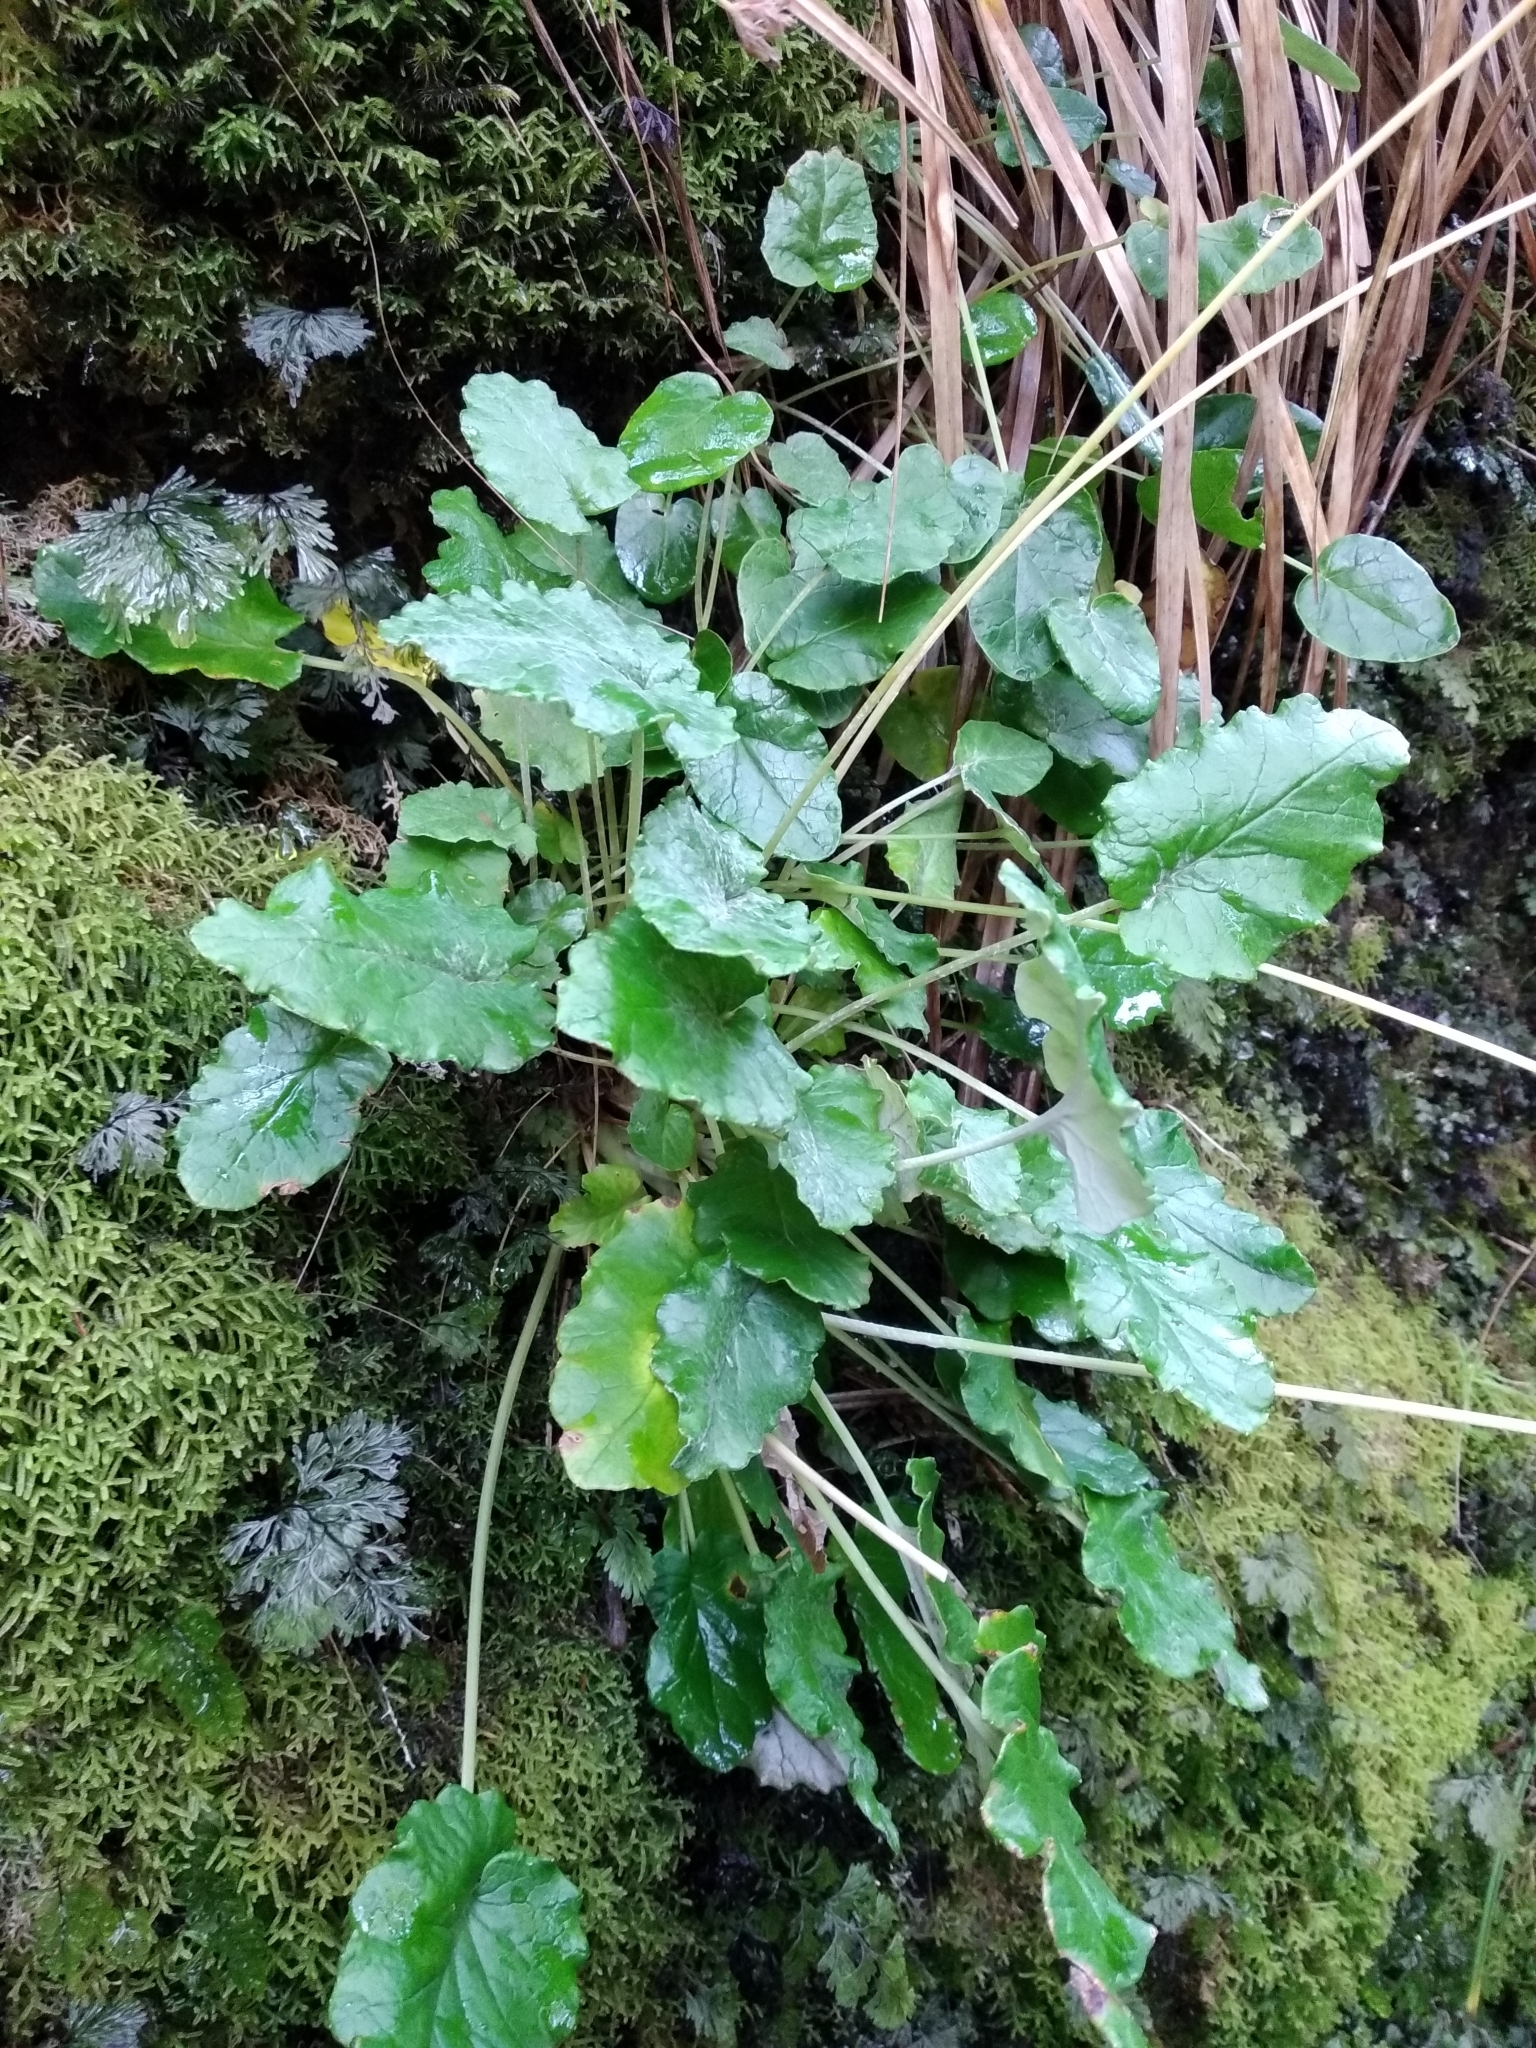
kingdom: Plantae
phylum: Tracheophyta
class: Magnoliopsida
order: Apiales
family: Apiaceae
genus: Hermas
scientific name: Hermas capitata
